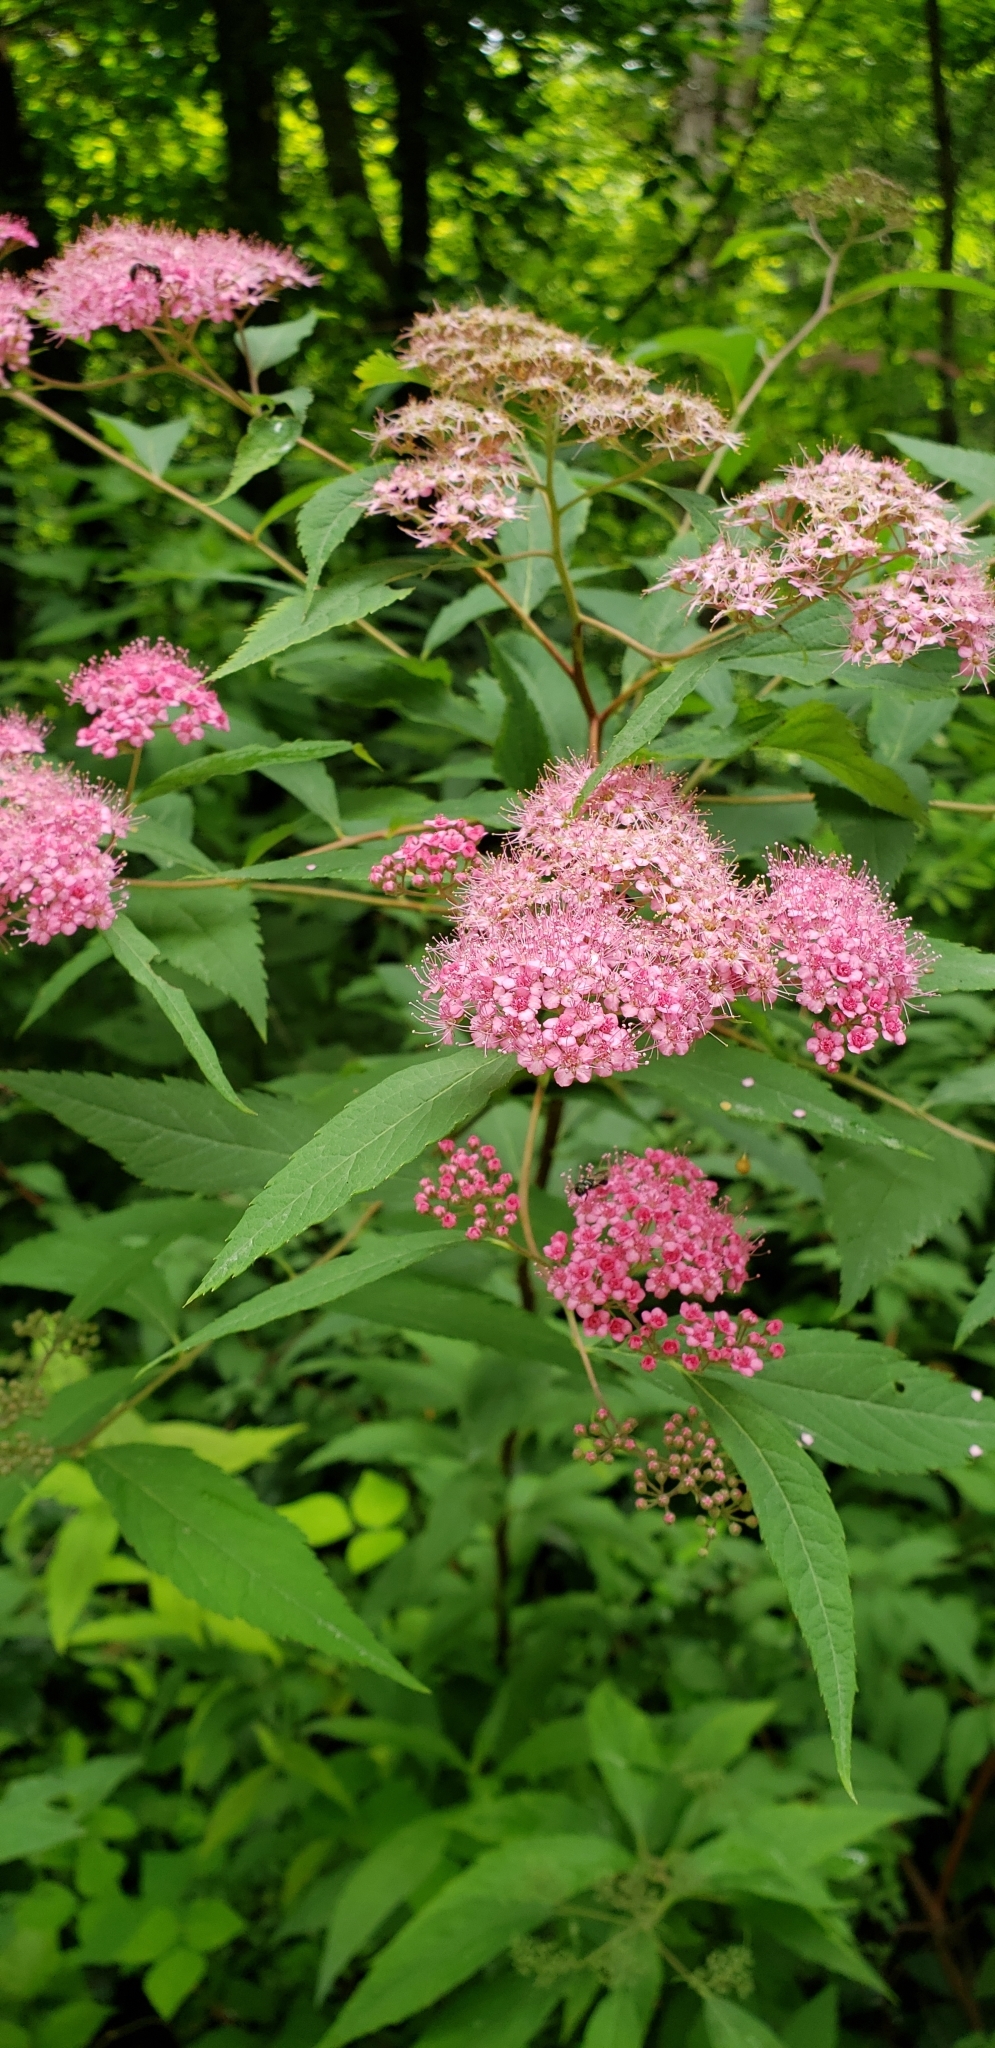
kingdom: Plantae
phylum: Tracheophyta
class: Magnoliopsida
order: Rosales
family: Rosaceae
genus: Spiraea
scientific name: Spiraea japonica
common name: Japanese spiraea
